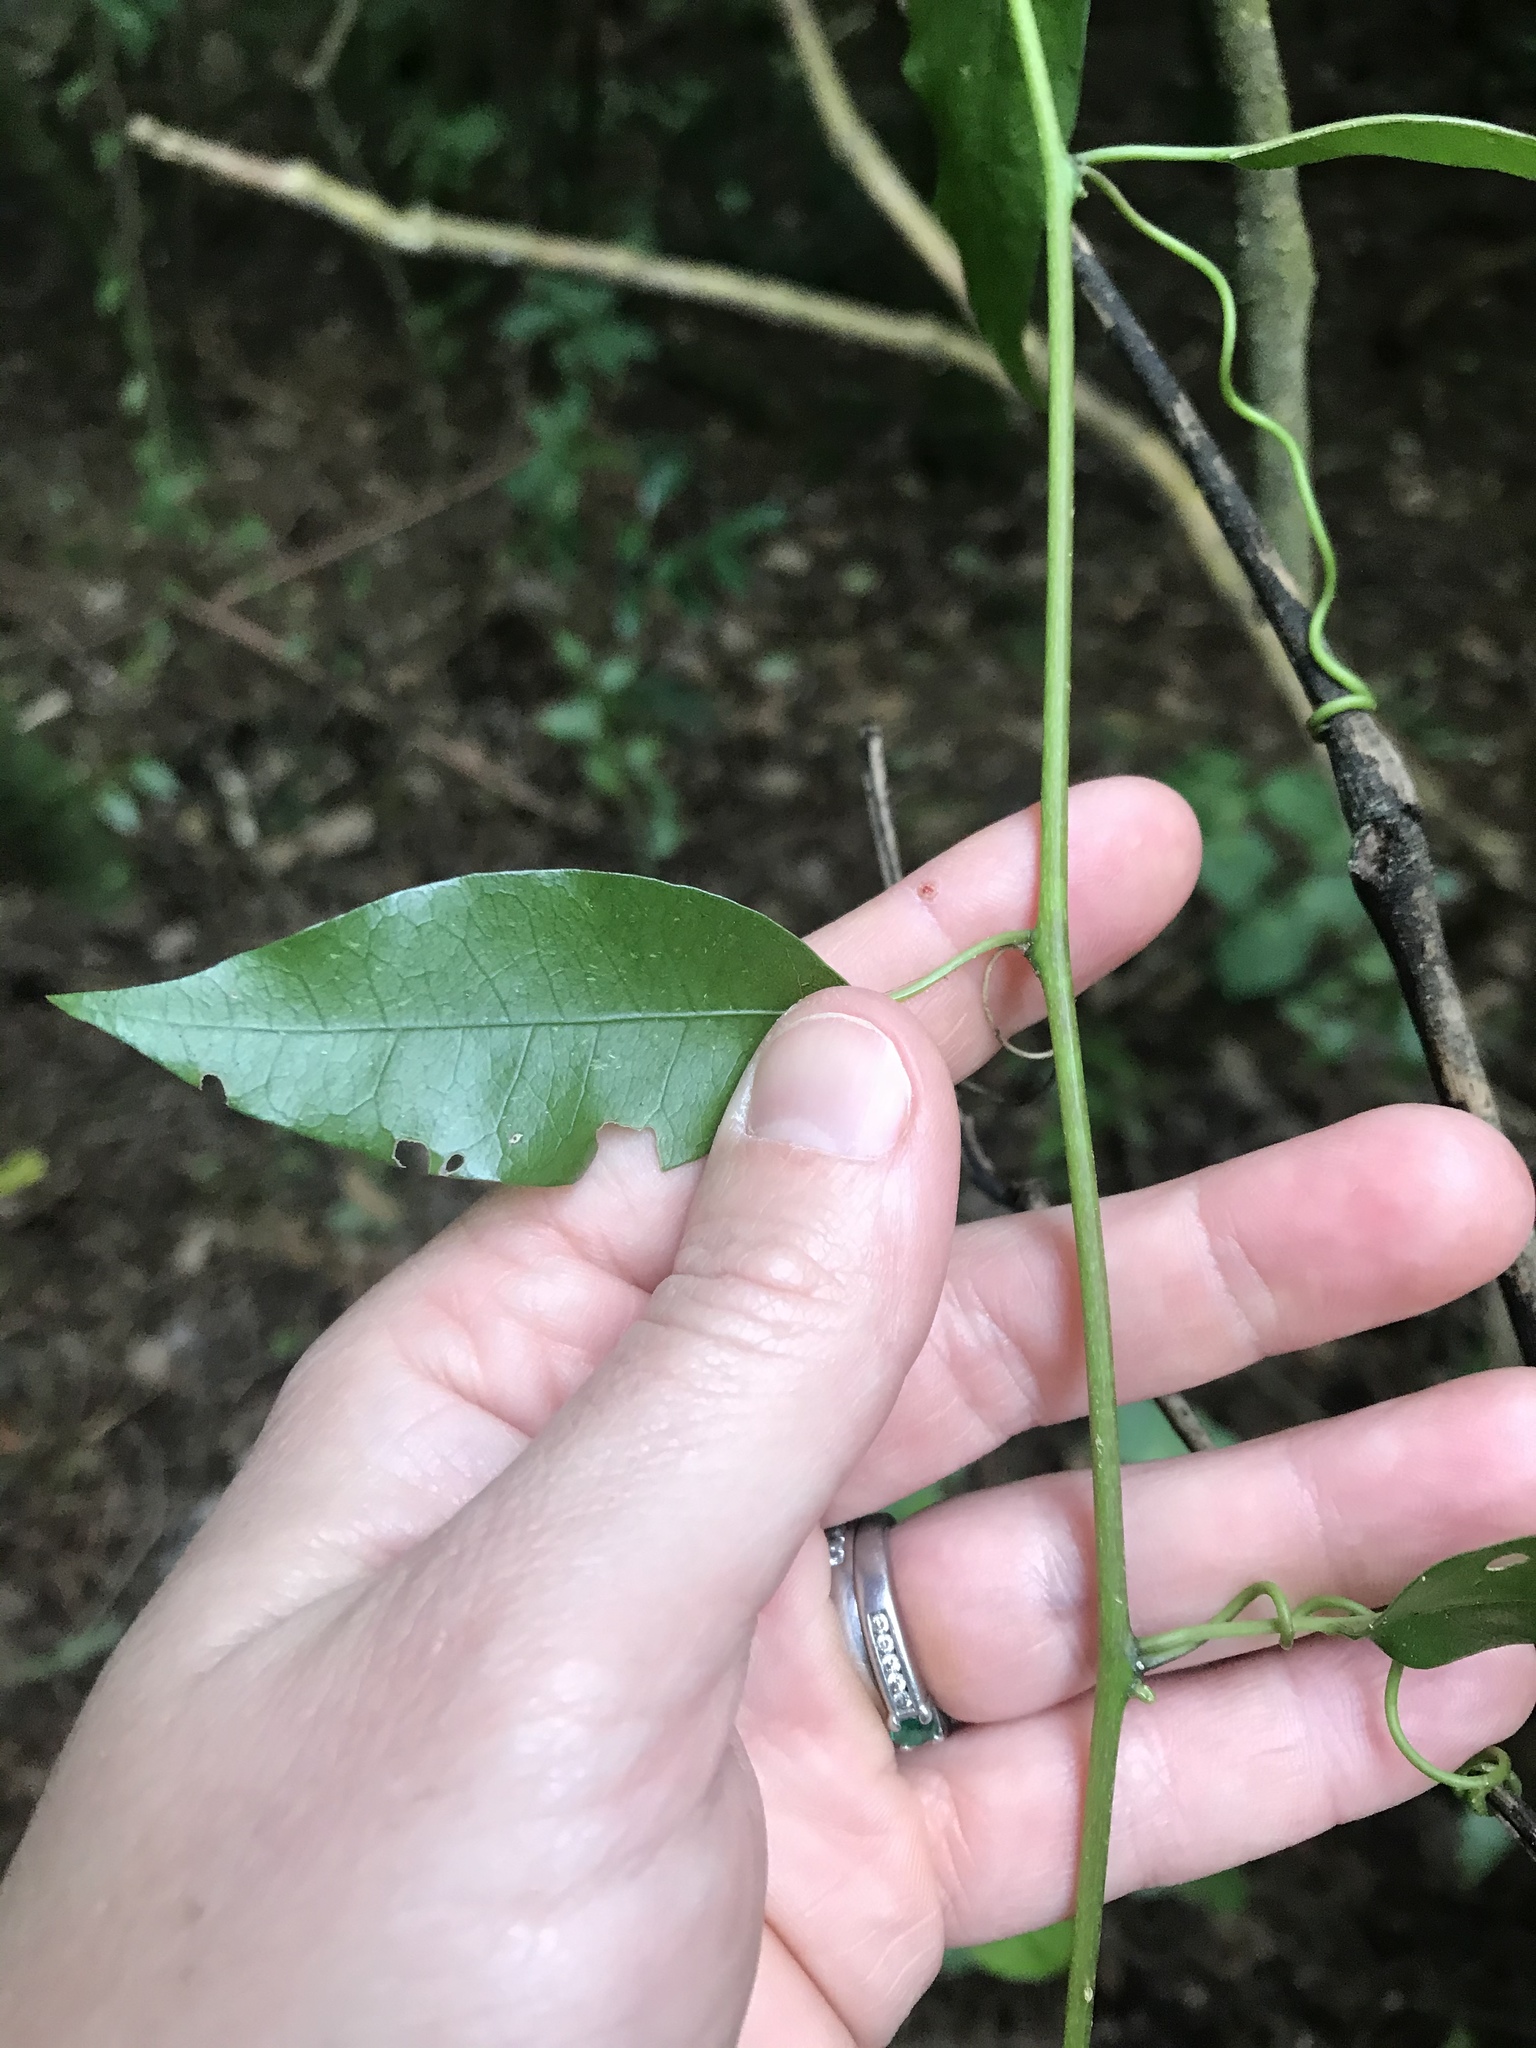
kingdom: Plantae
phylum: Tracheophyta
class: Magnoliopsida
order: Malpighiales
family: Passifloraceae
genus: Passiflora
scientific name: Passiflora tetrandra
